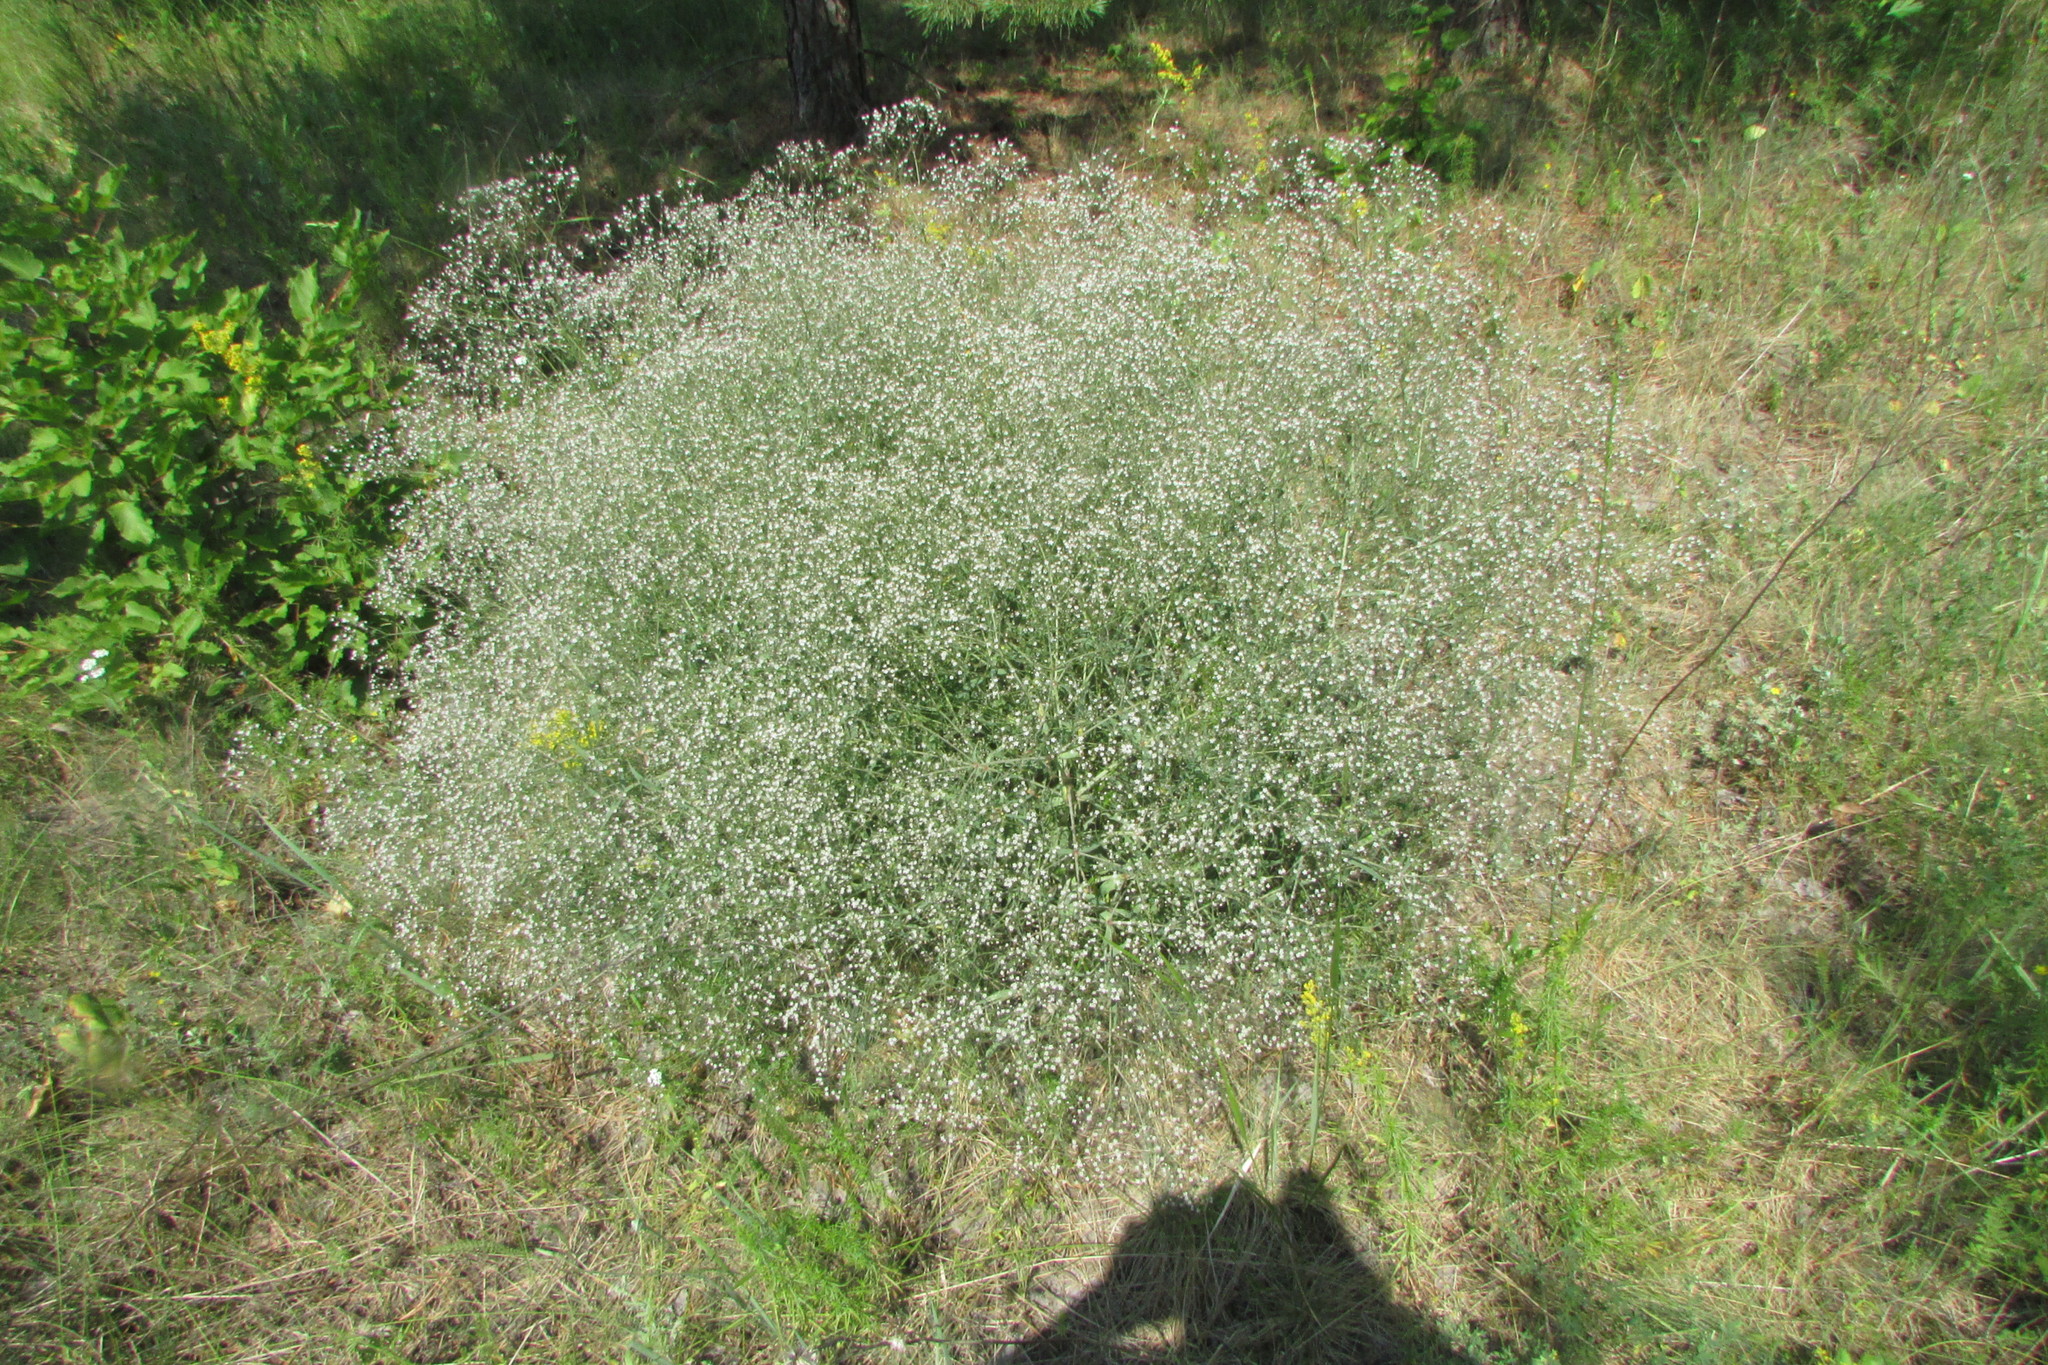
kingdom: Plantae
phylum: Tracheophyta
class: Magnoliopsida
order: Caryophyllales
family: Caryophyllaceae
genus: Gypsophila
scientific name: Gypsophila paniculata
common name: Baby's-breath
